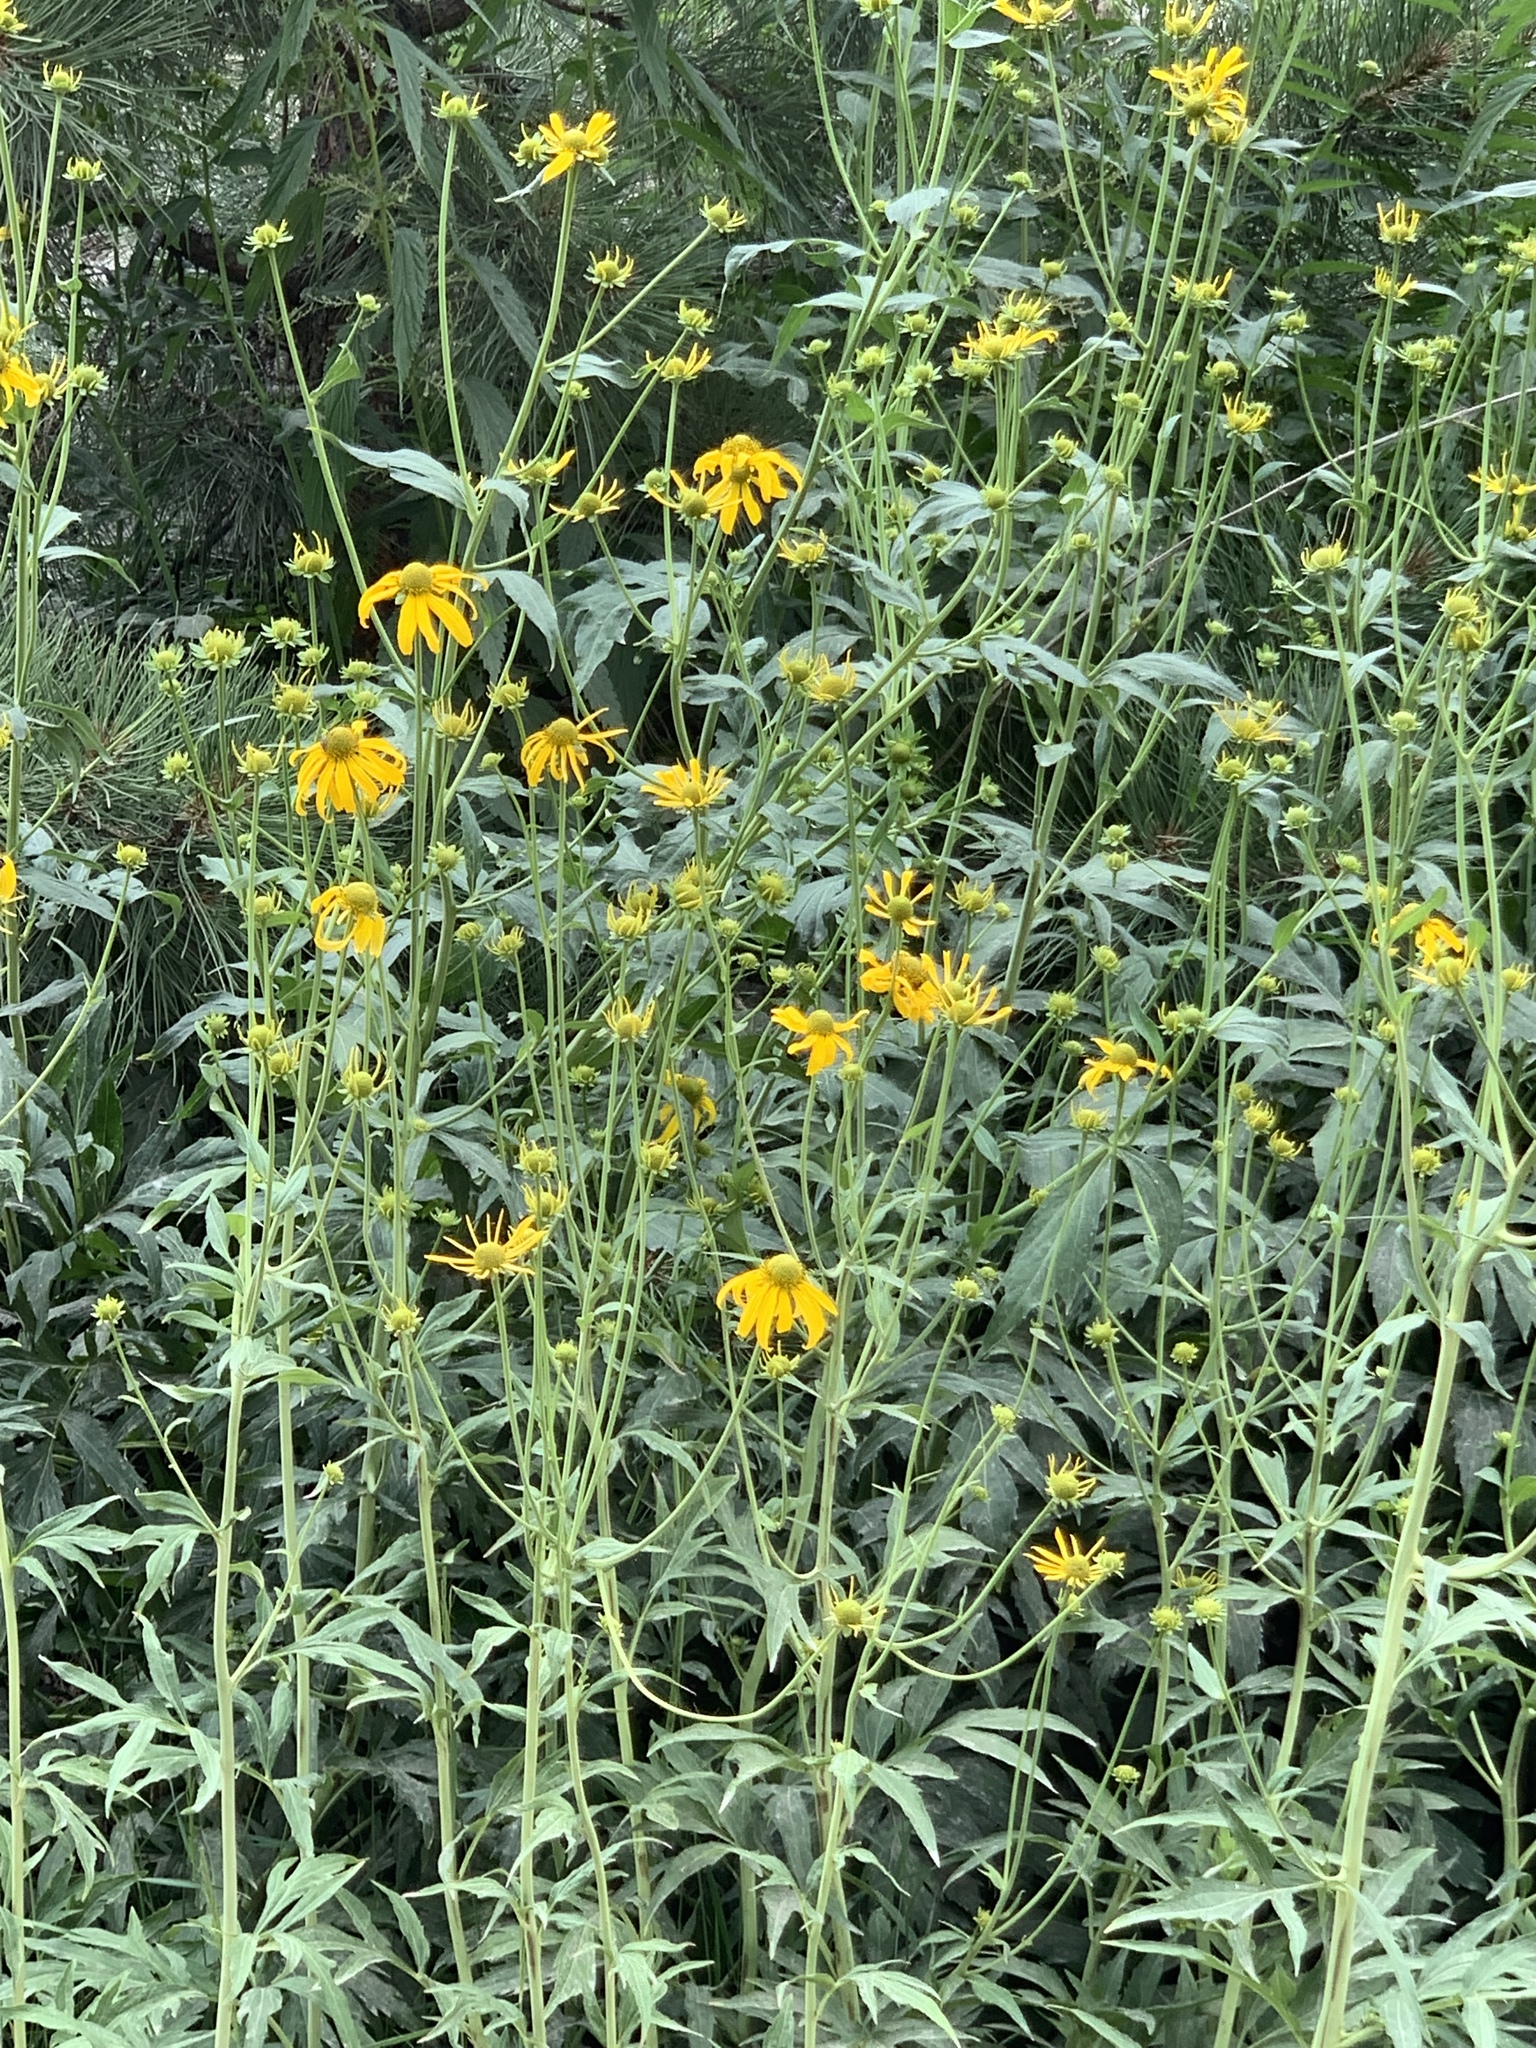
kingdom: Plantae
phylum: Tracheophyta
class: Magnoliopsida
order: Asterales
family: Asteraceae
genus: Rudbeckia
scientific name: Rudbeckia laciniata
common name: Coneflower
